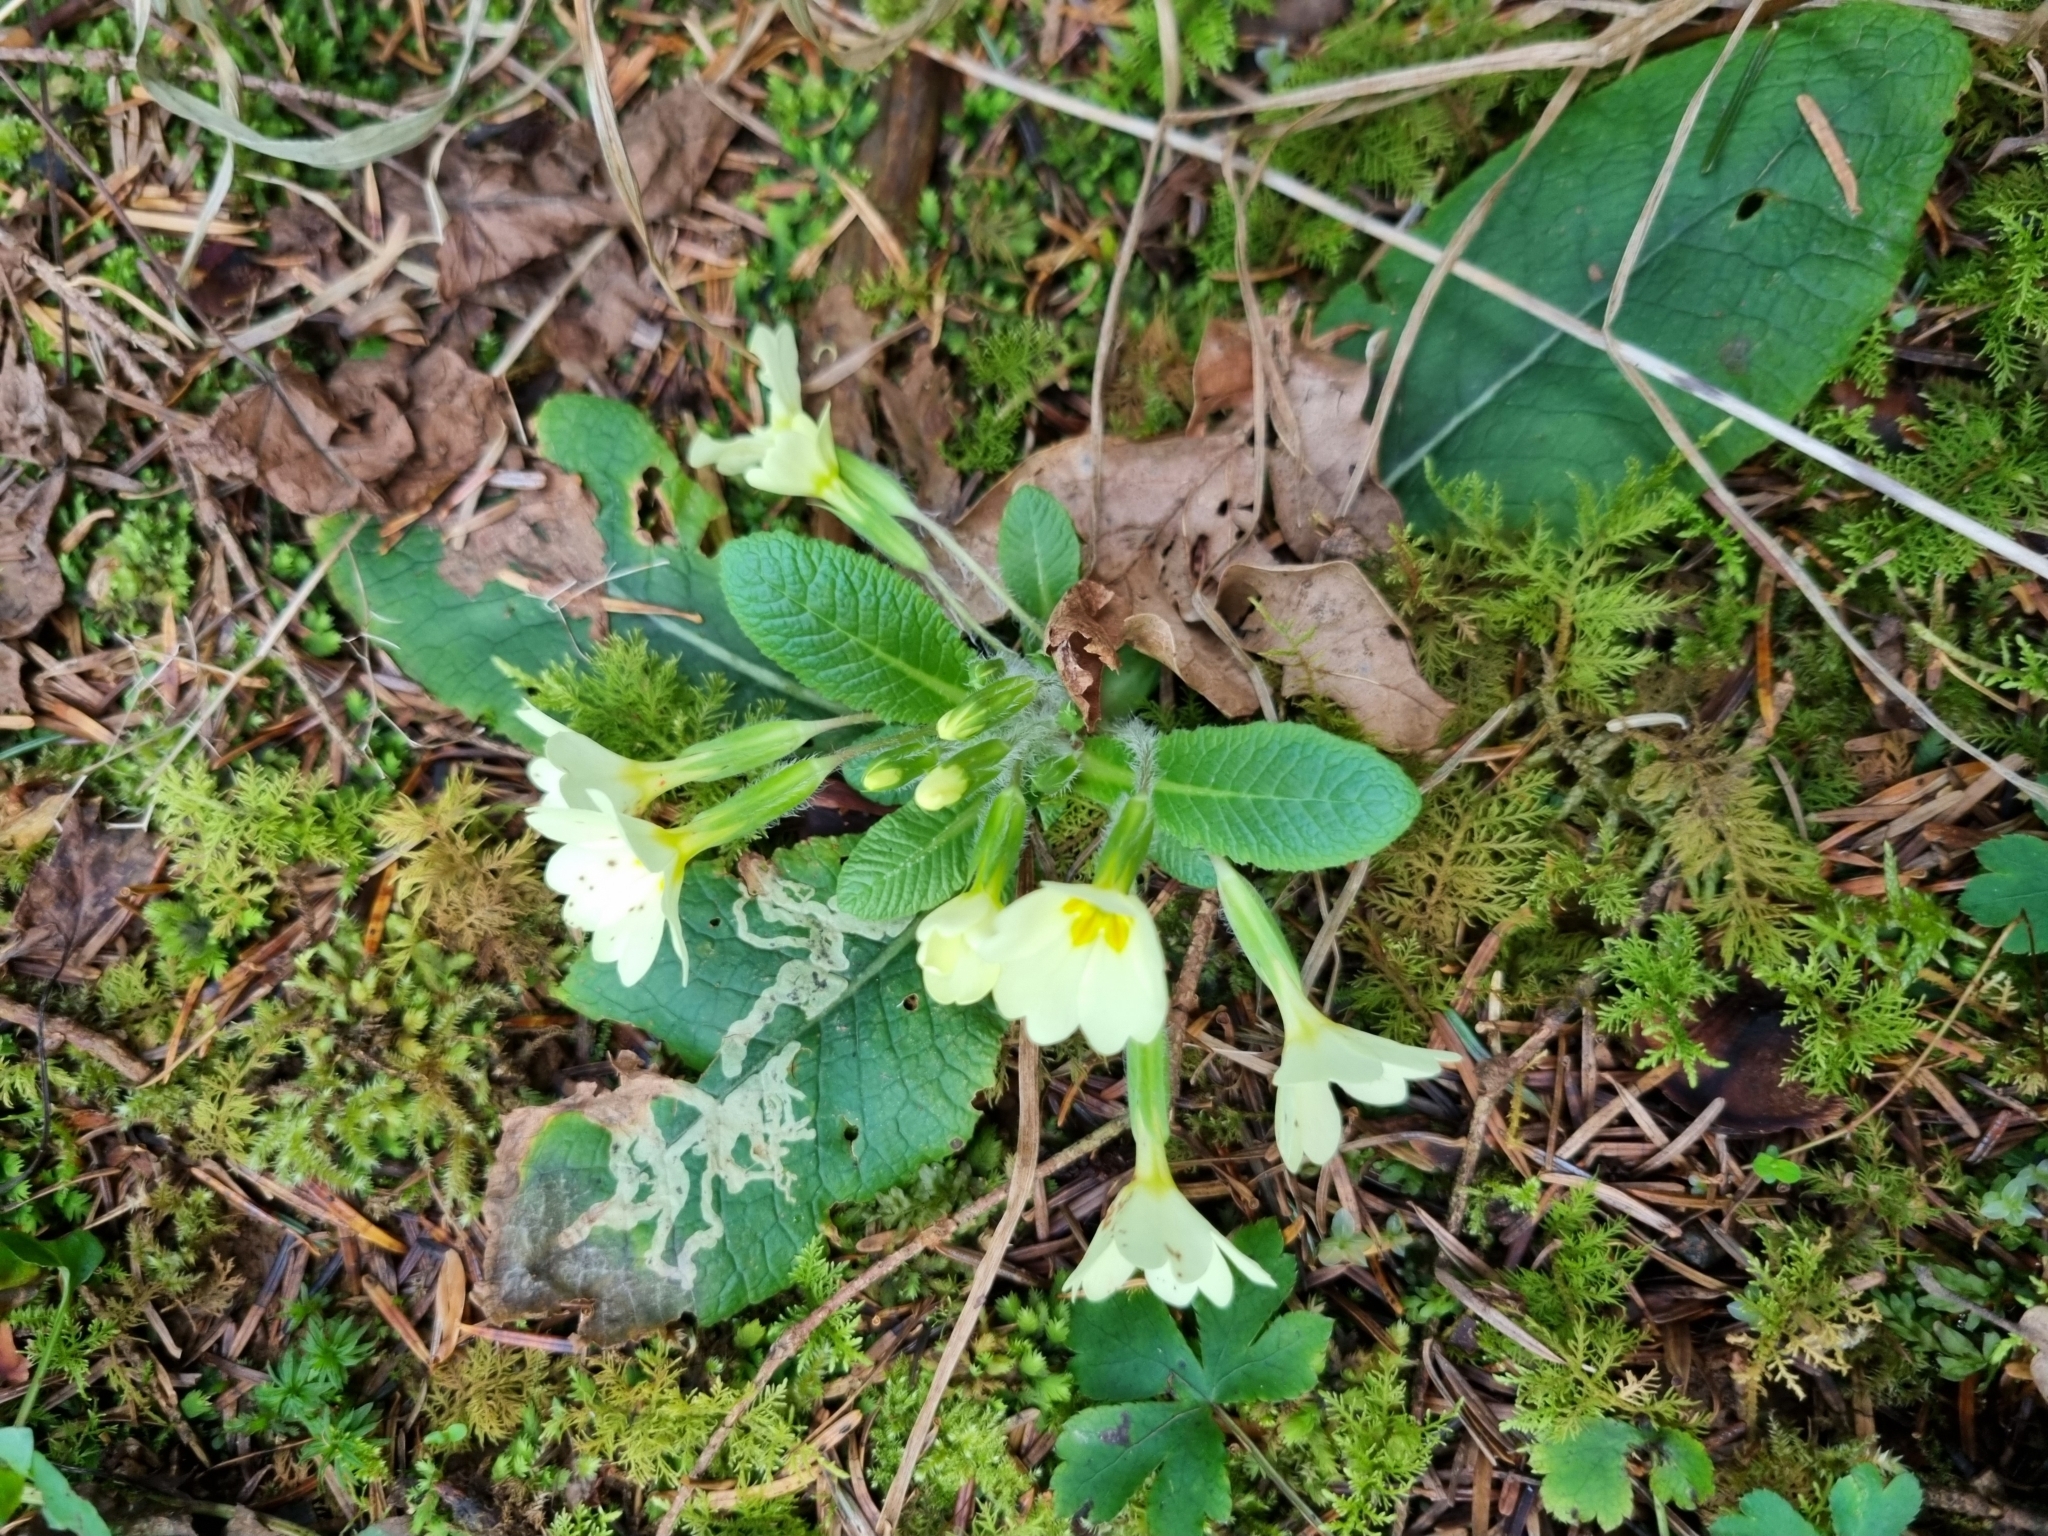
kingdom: Plantae
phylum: Tracheophyta
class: Magnoliopsida
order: Ericales
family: Primulaceae
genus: Primula
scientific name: Primula vulgaris
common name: Primrose
